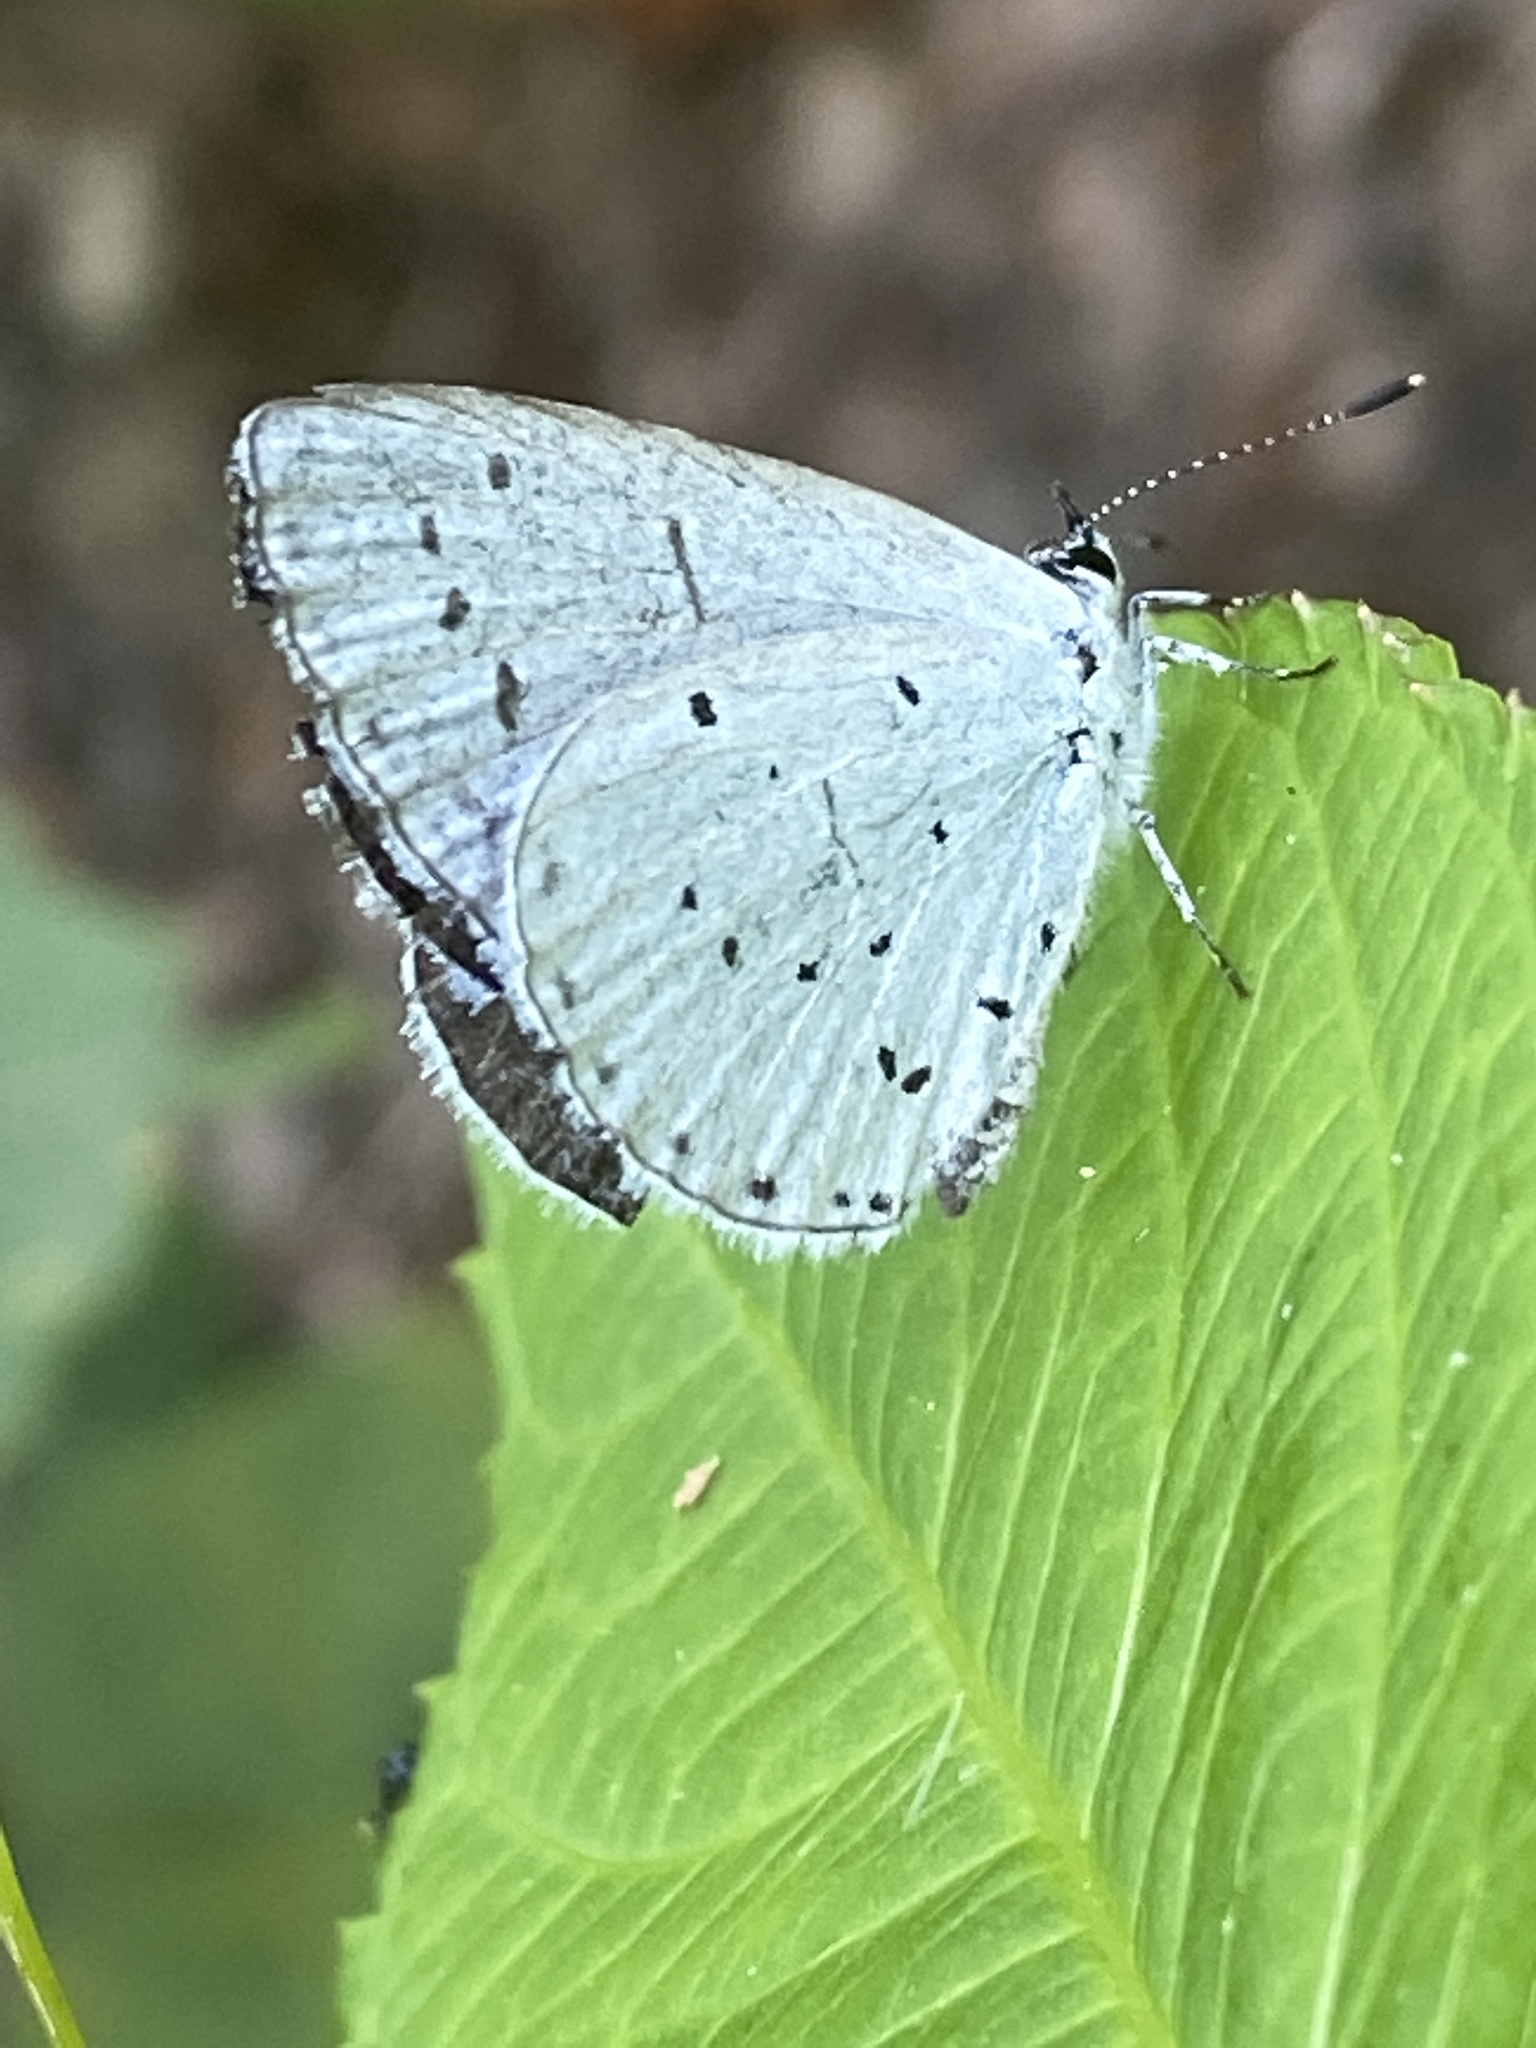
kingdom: Animalia
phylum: Arthropoda
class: Insecta
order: Lepidoptera
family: Lycaenidae
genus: Celastrina
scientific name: Celastrina argiolus
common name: Holly blue
